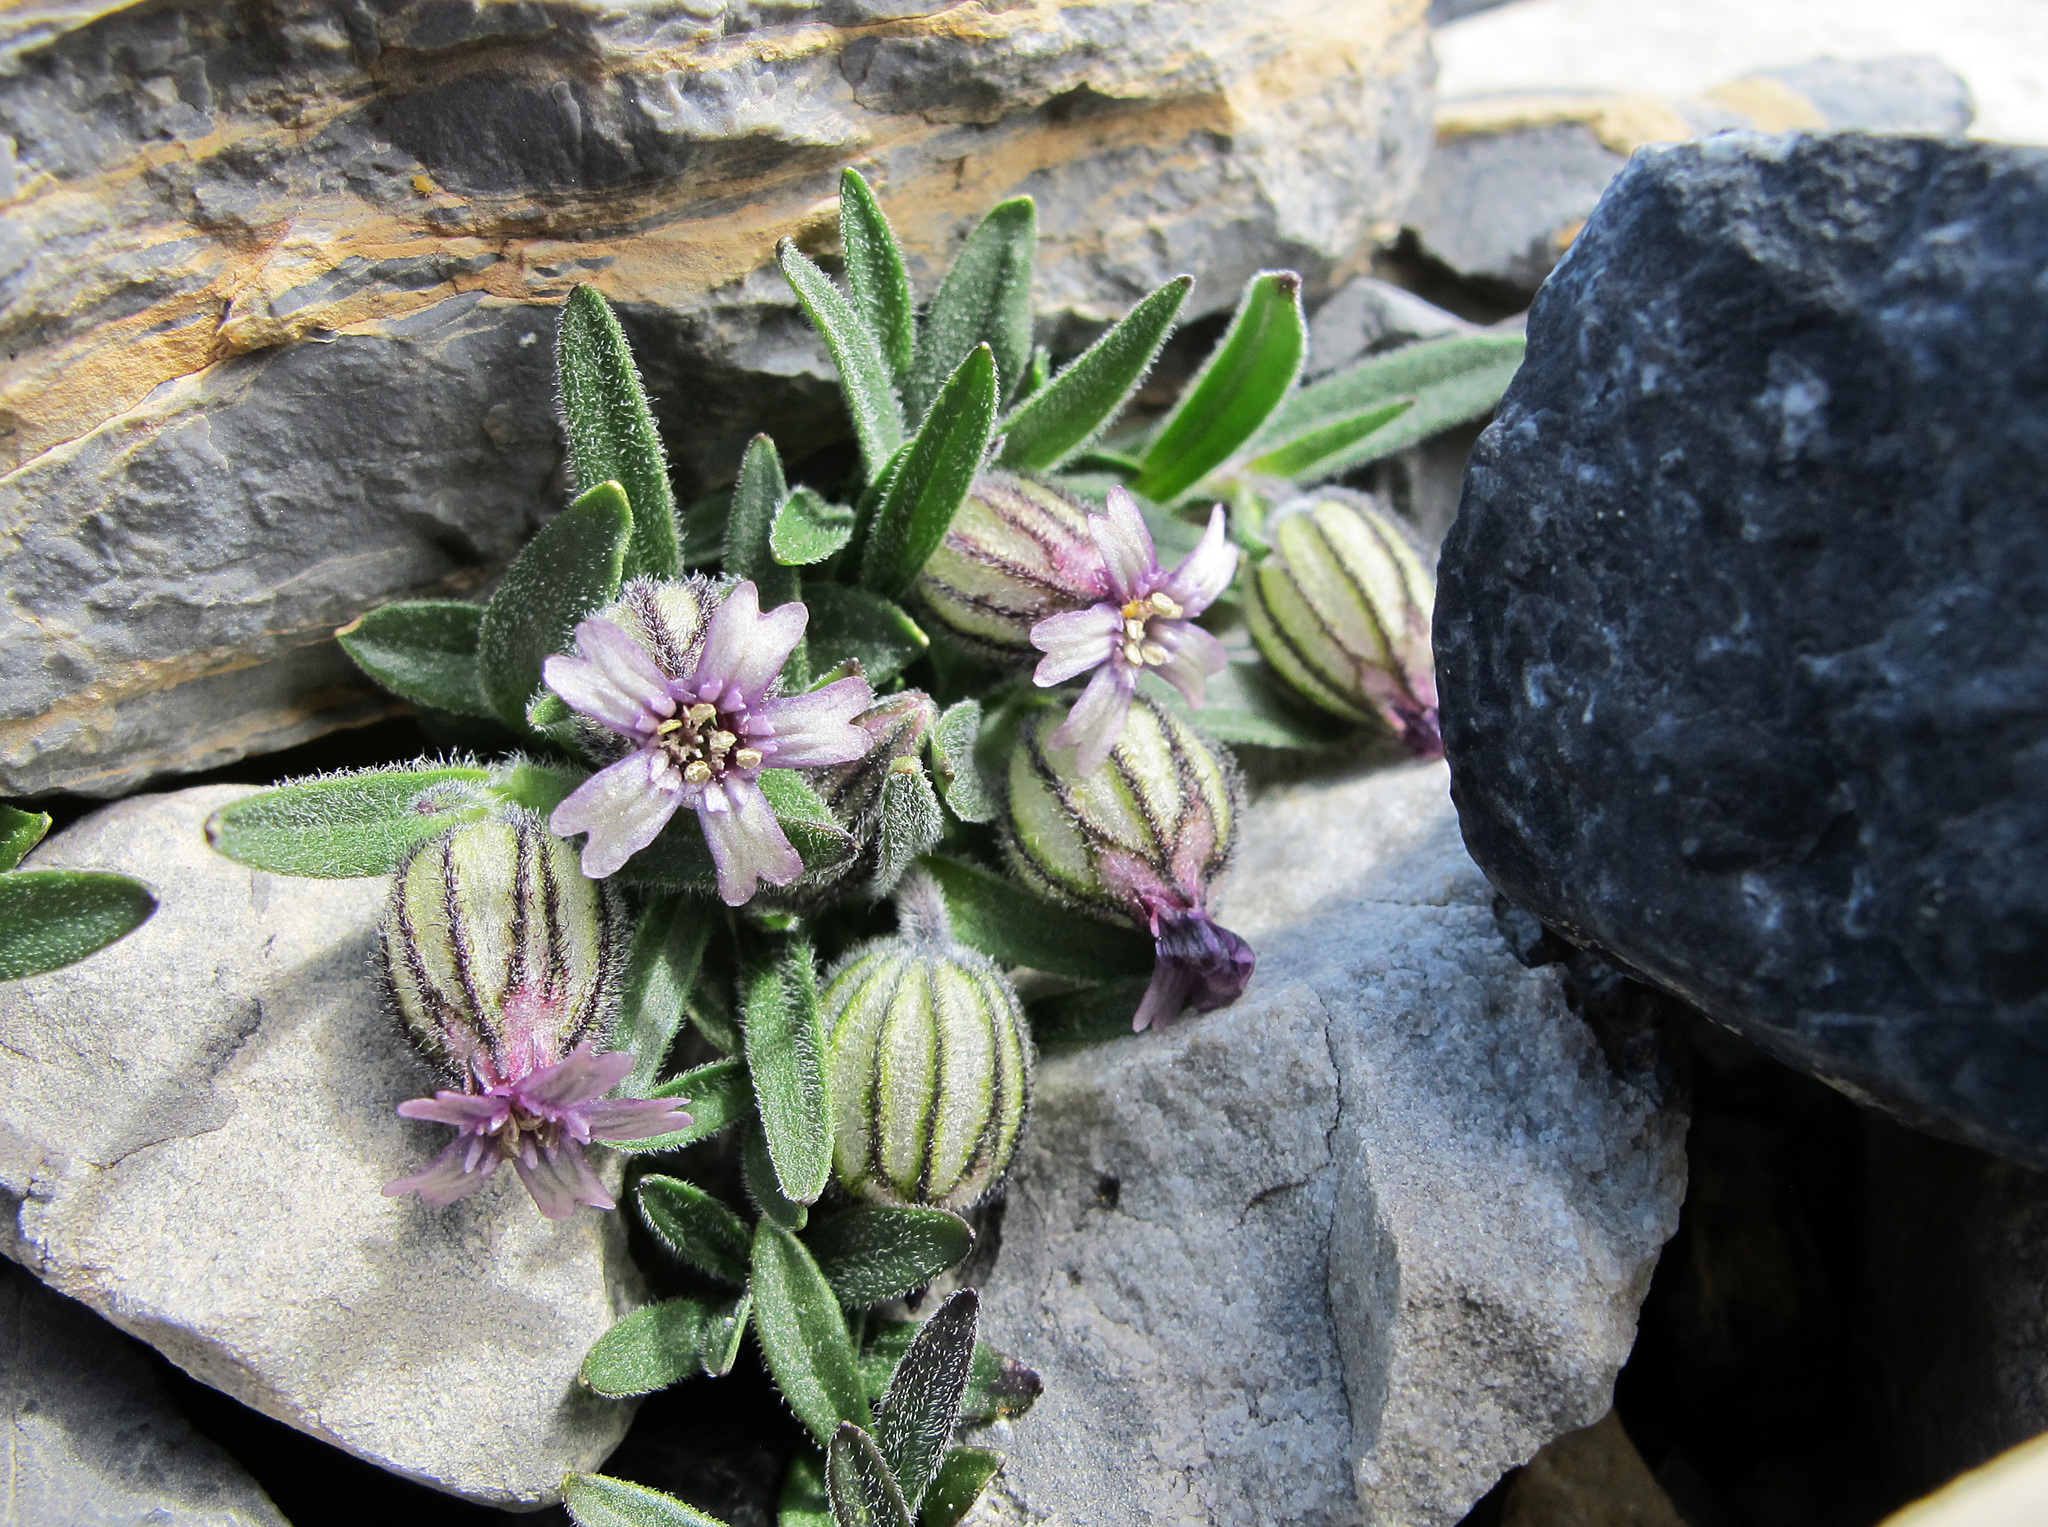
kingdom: Plantae
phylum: Tracheophyta
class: Magnoliopsida
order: Caryophyllales
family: Caryophyllaceae
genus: Silene
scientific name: Silene uralensis
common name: Nodding campion
